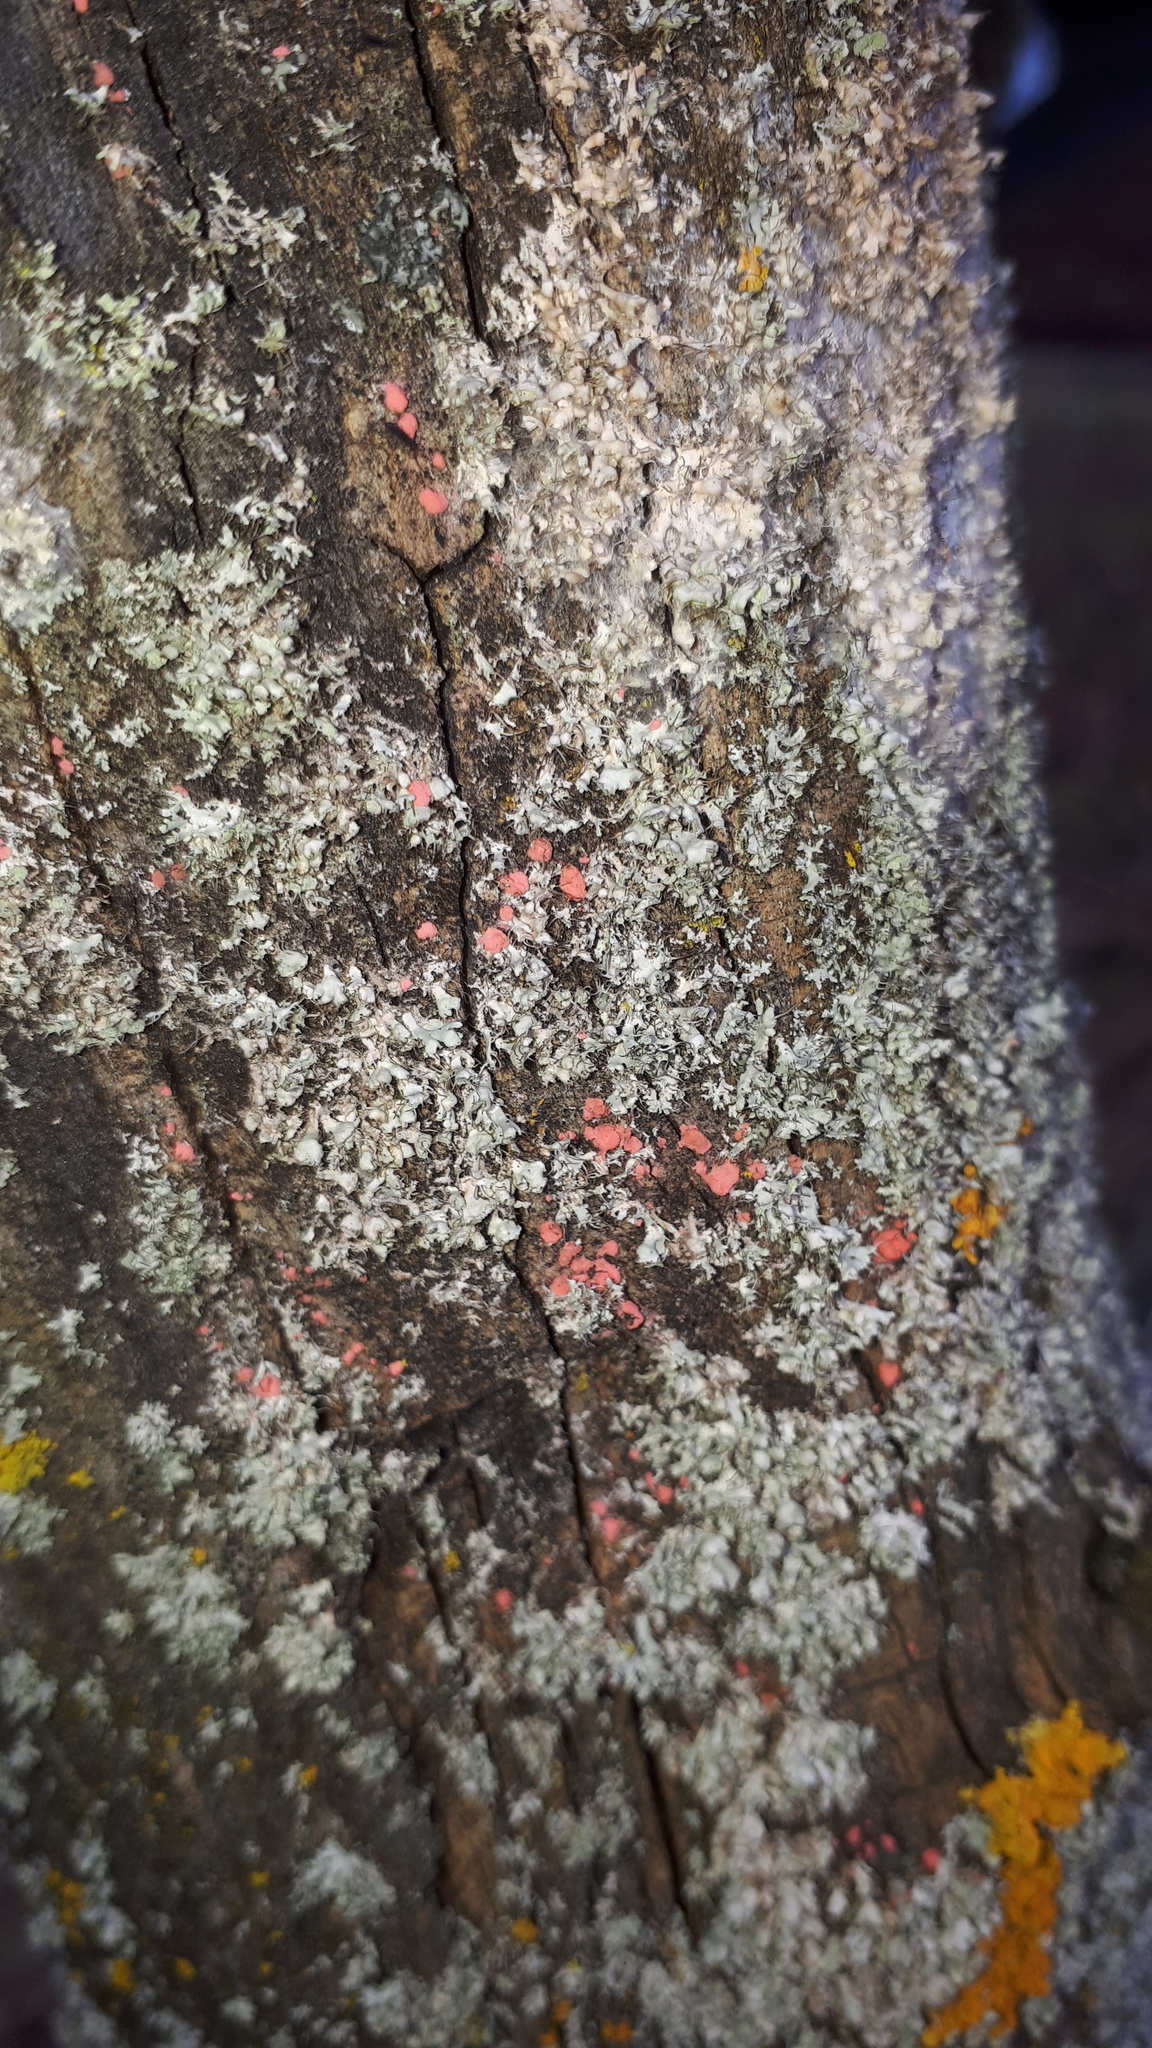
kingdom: Fungi
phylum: Ascomycota
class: Sordariomycetes
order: Hypocreales
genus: Illosporiopsis
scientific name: Illosporiopsis christiansenii
